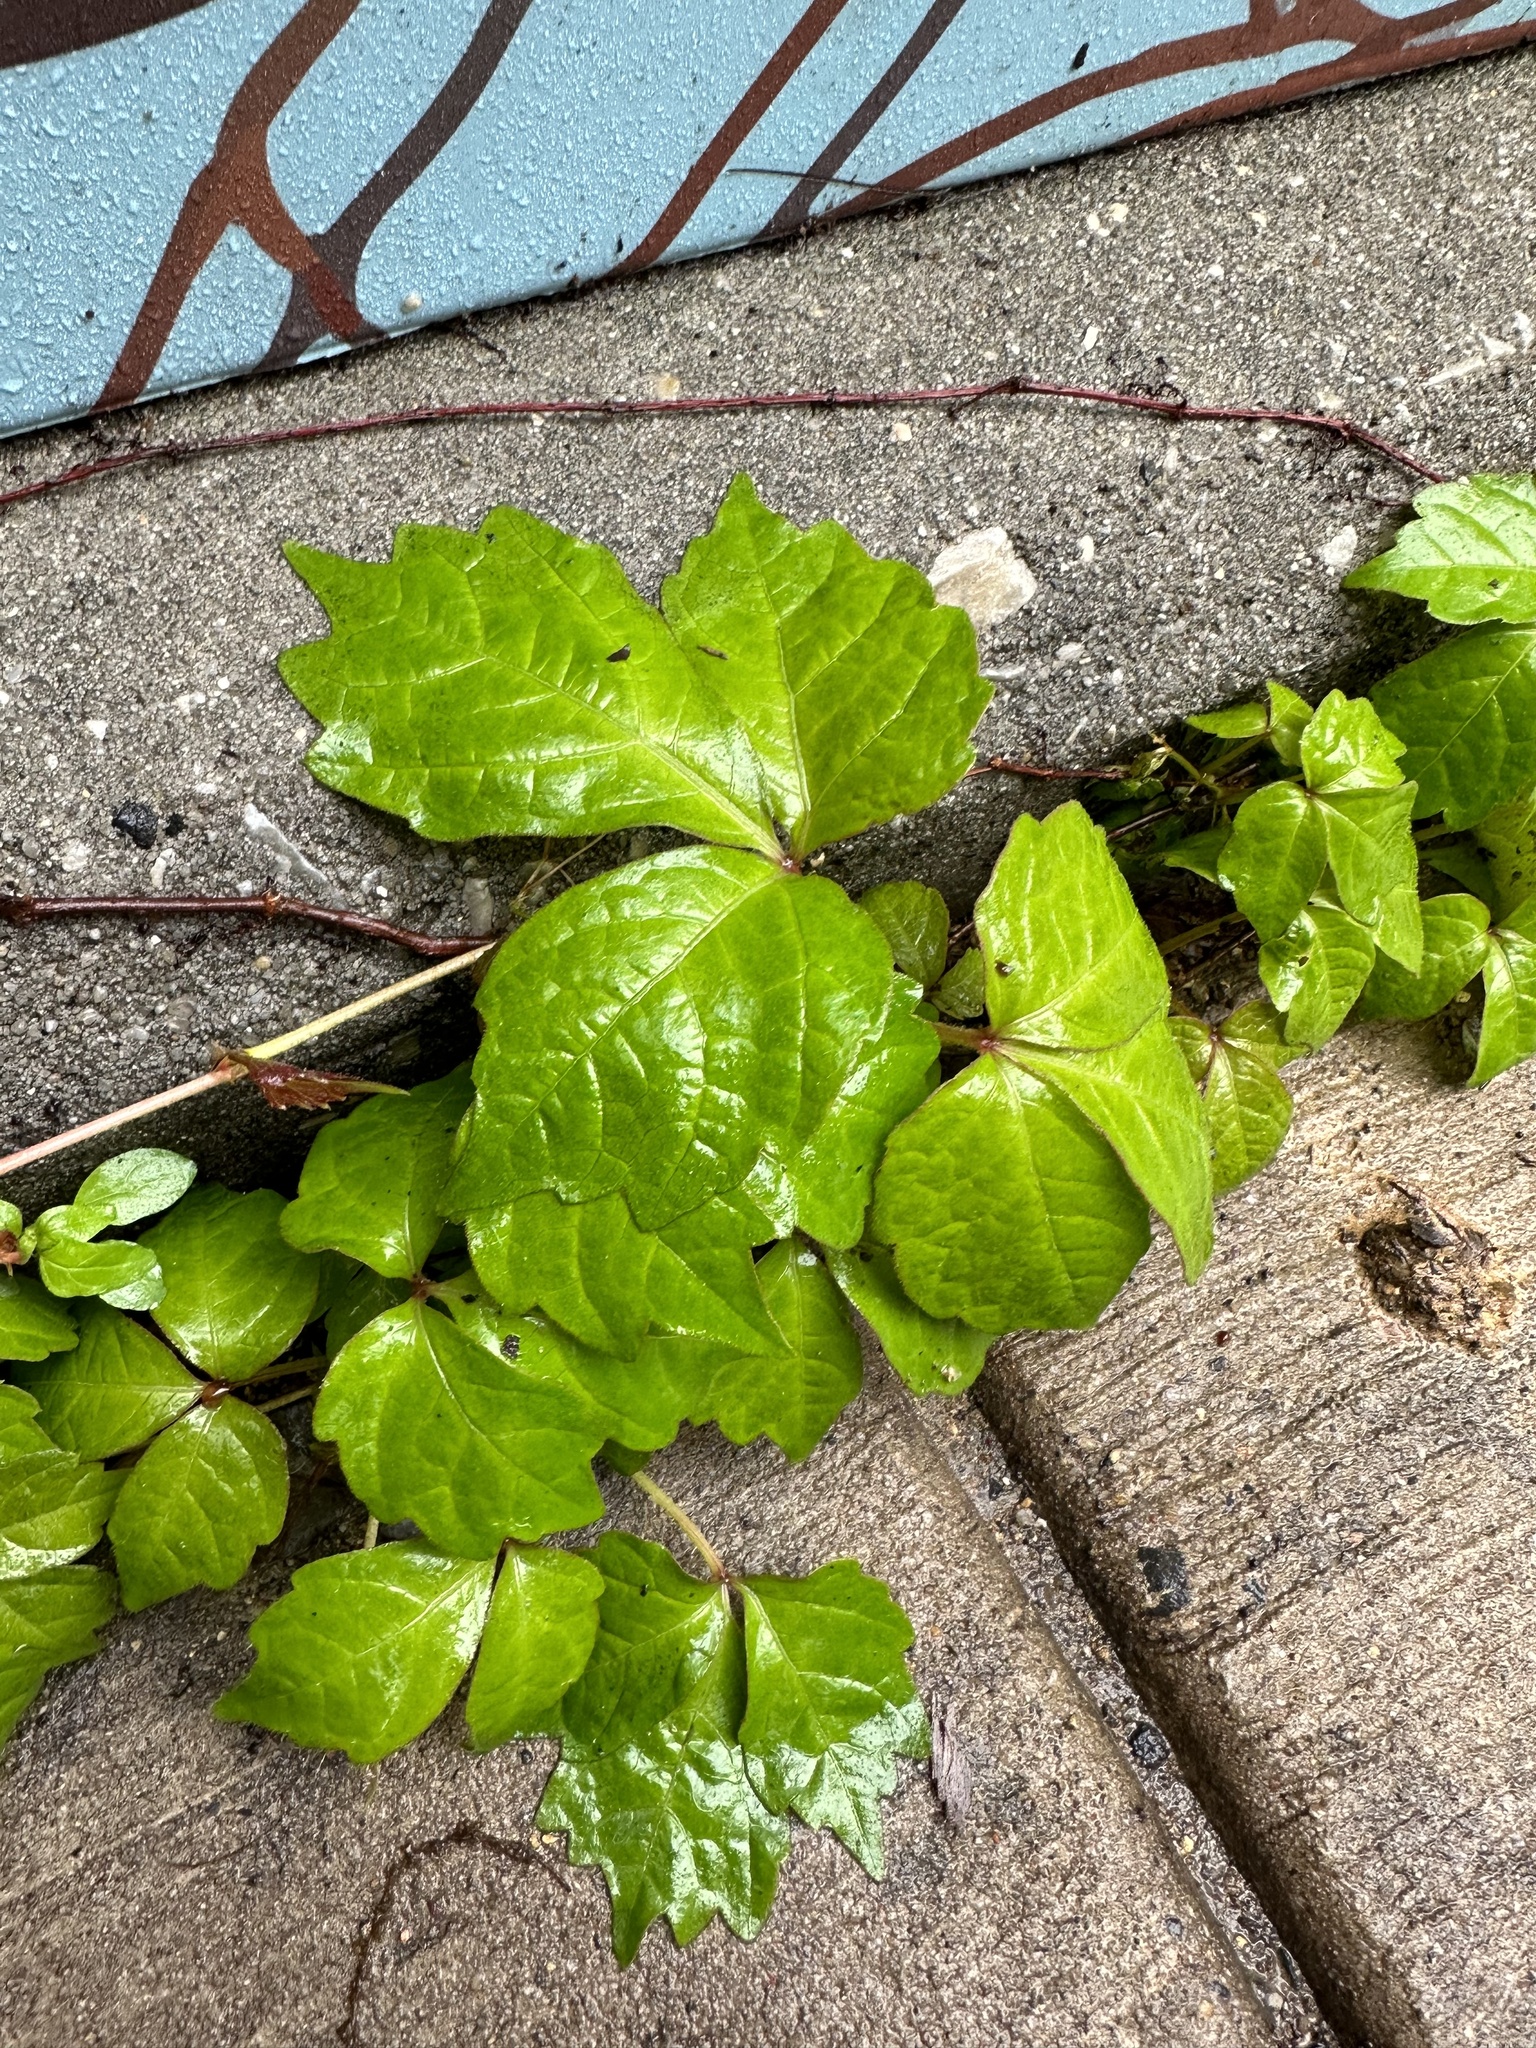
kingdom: Plantae
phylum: Tracheophyta
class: Magnoliopsida
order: Vitales
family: Vitaceae
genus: Parthenocissus
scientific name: Parthenocissus tricuspidata
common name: Boston ivy
